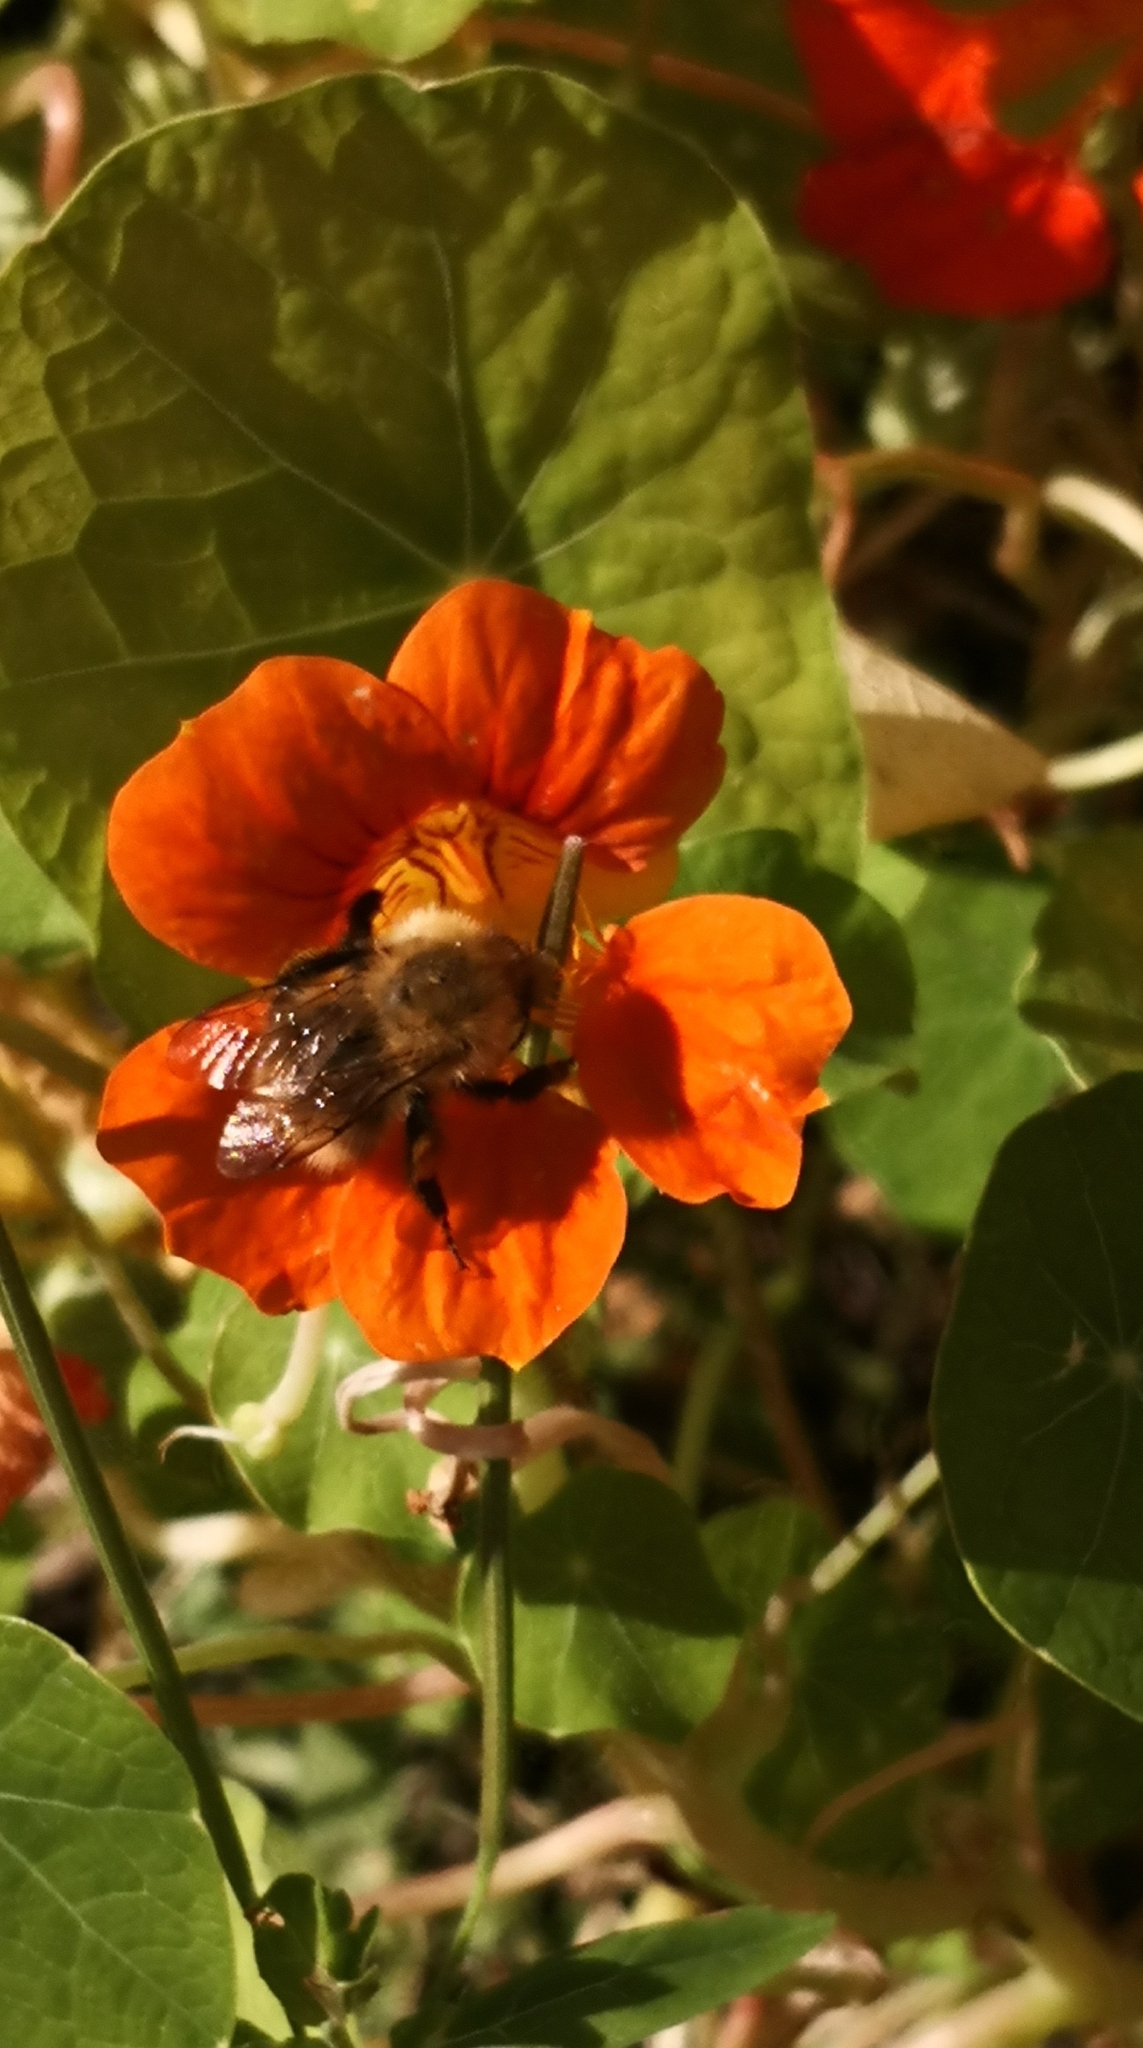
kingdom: Animalia
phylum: Arthropoda
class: Insecta
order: Hymenoptera
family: Apidae
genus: Bombus
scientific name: Bombus pascuorum
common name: Common carder bee
